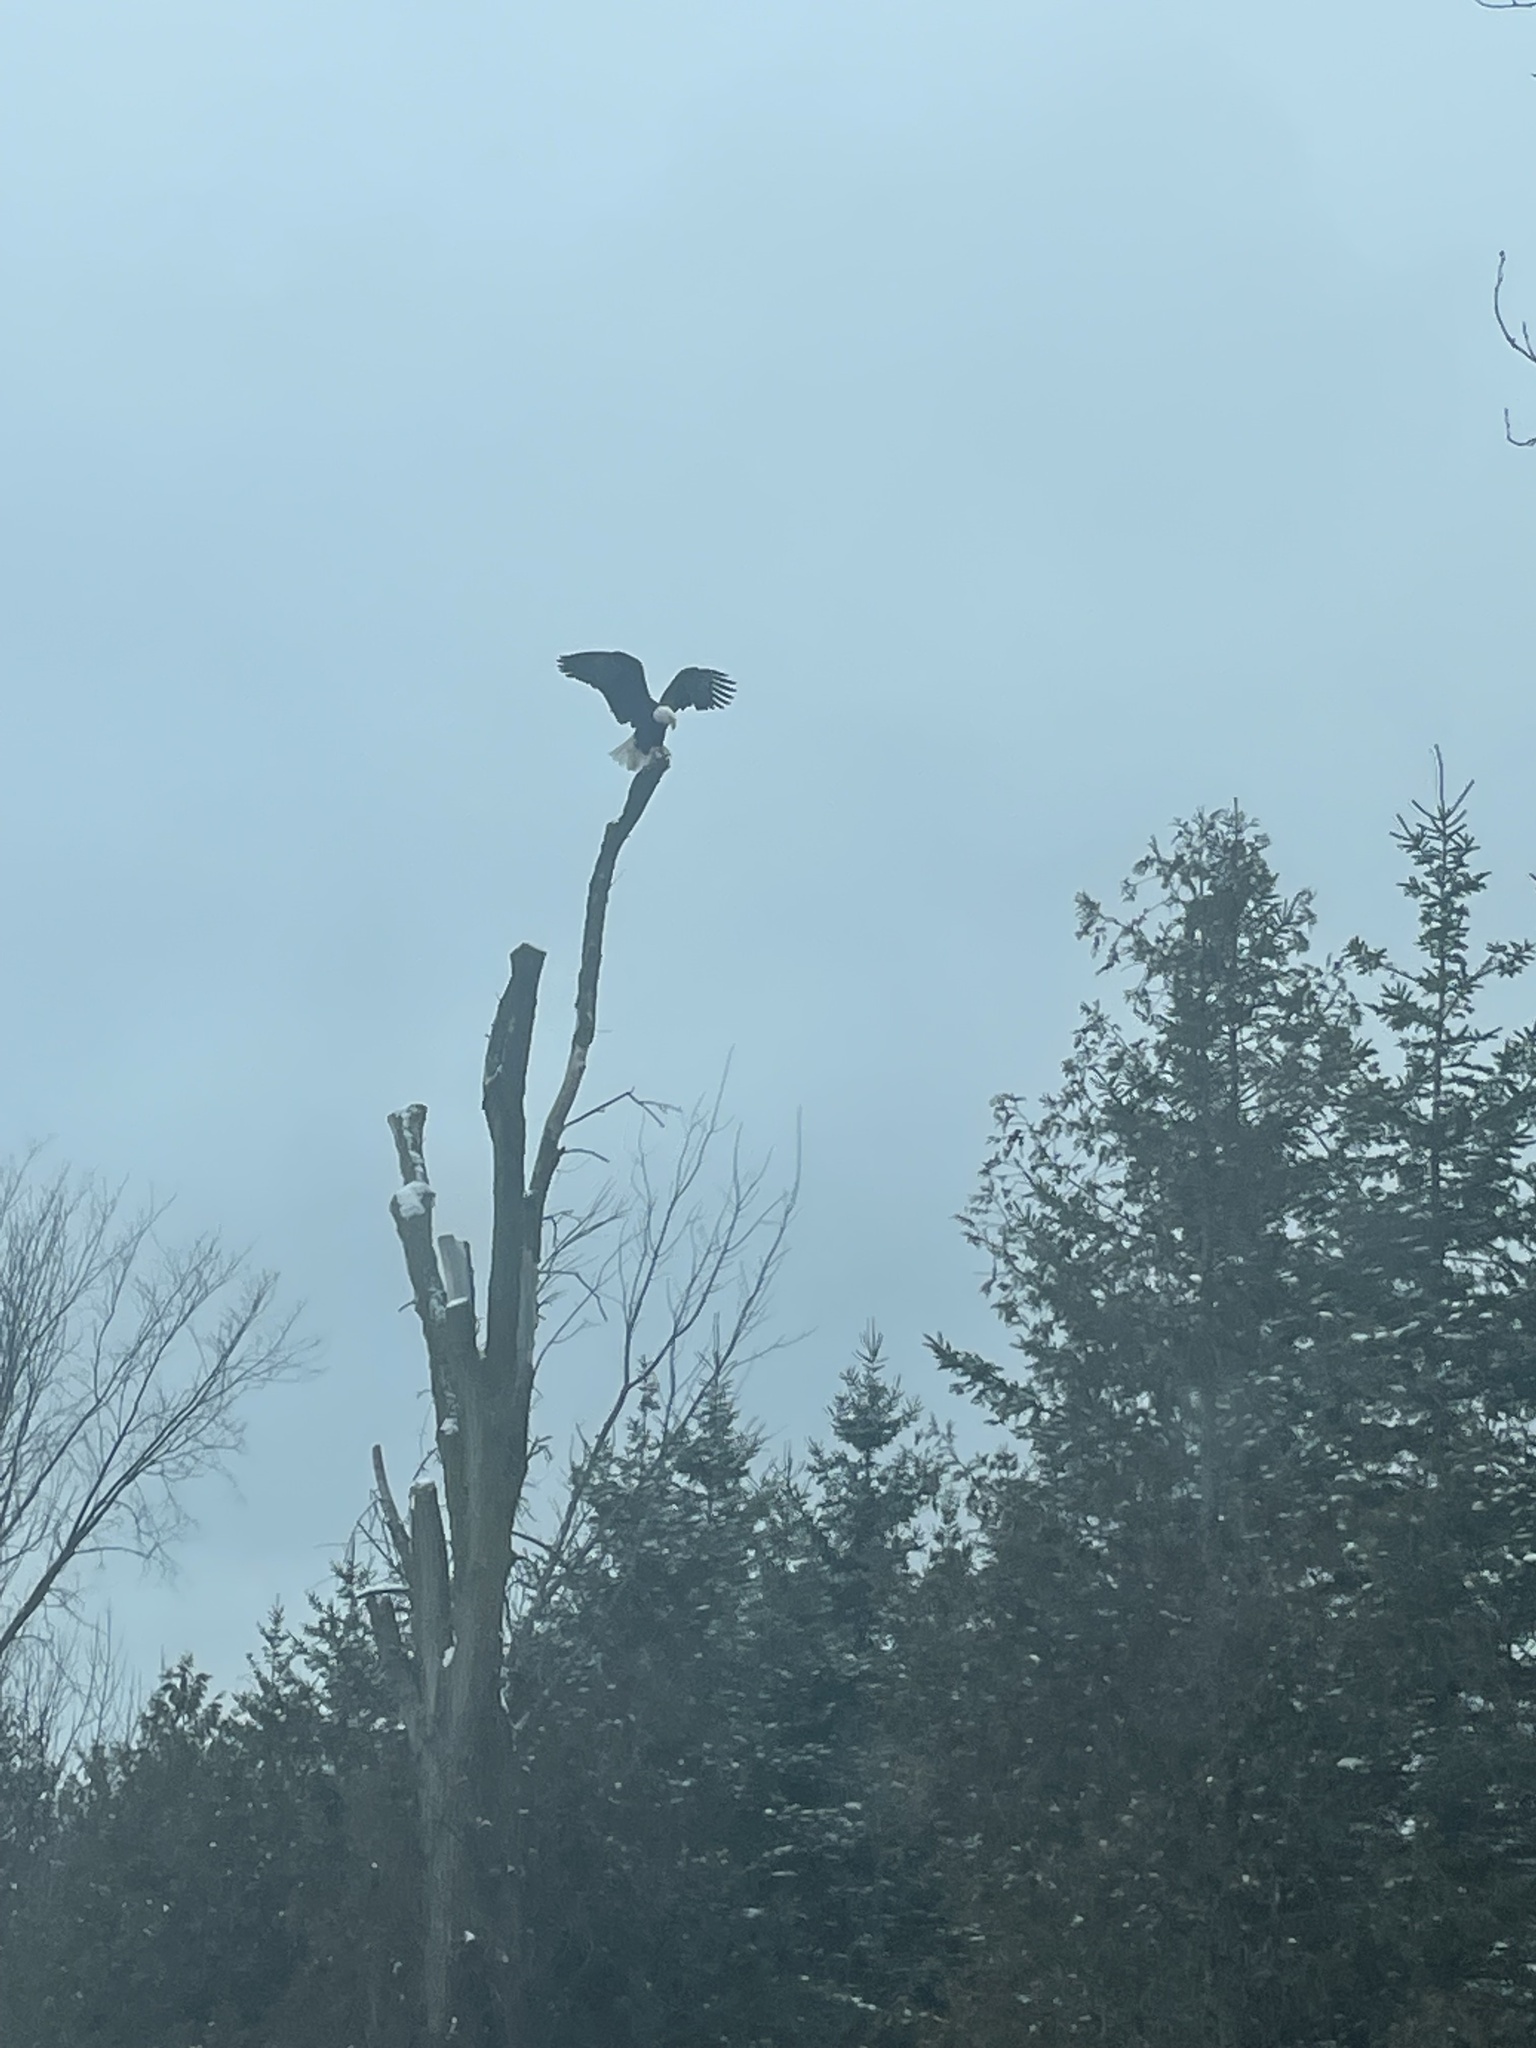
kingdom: Animalia
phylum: Chordata
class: Aves
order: Accipitriformes
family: Accipitridae
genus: Haliaeetus
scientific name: Haliaeetus leucocephalus
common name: Bald eagle
